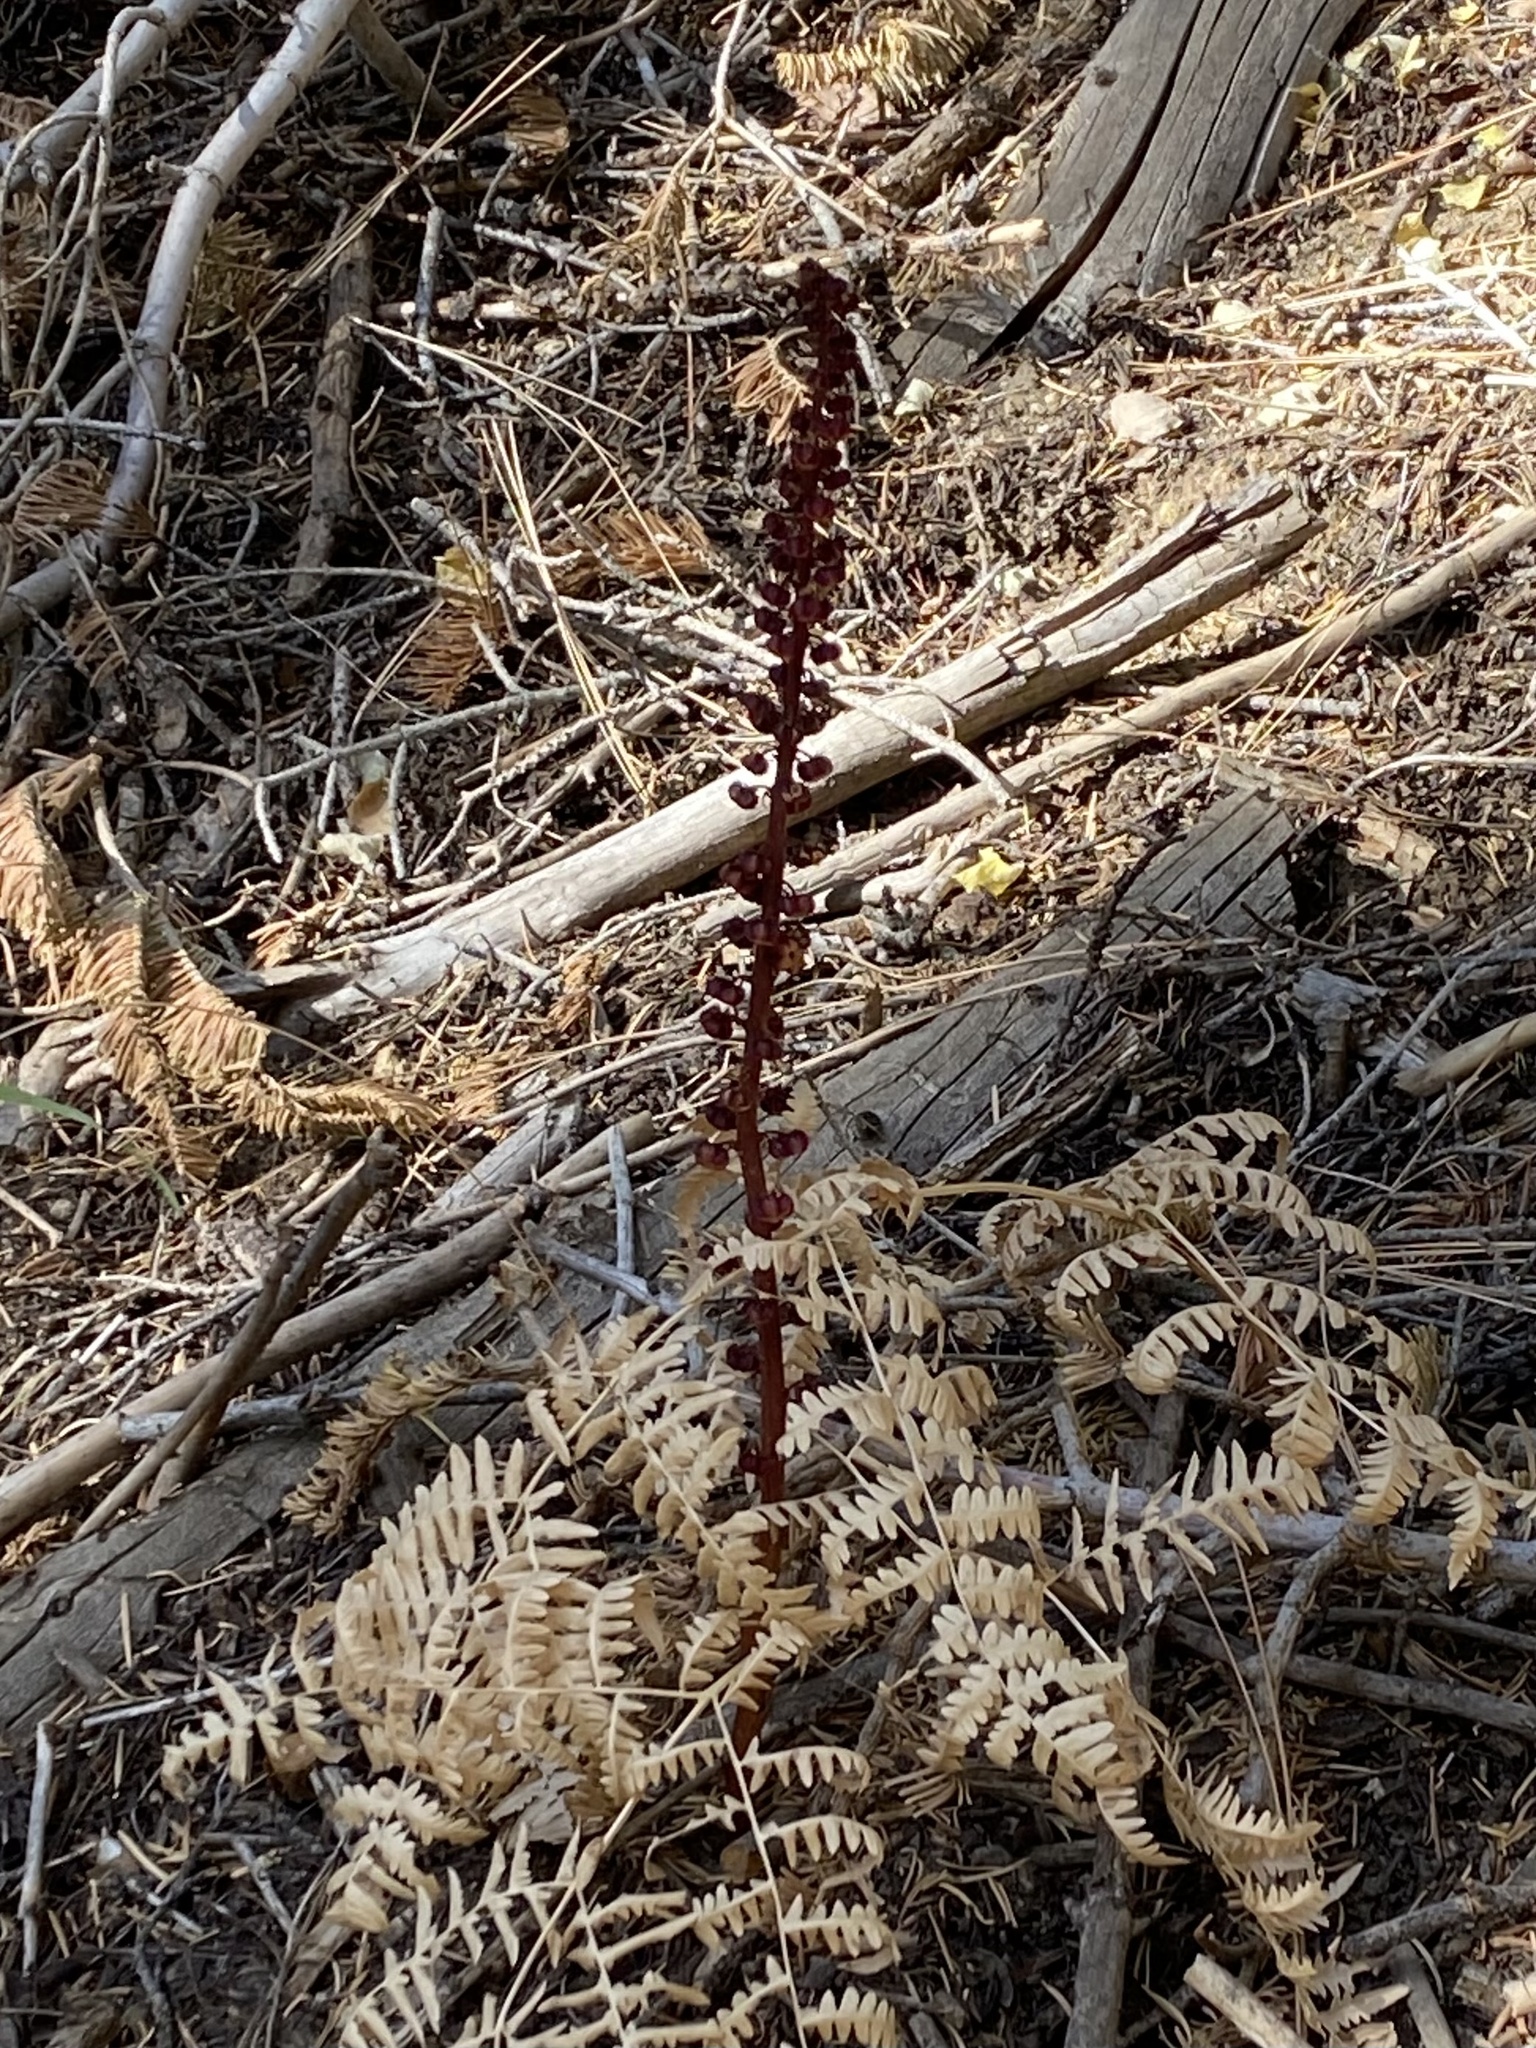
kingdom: Plantae
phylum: Tracheophyta
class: Magnoliopsida
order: Ericales
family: Ericaceae
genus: Pterospora
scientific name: Pterospora andromedea
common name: Giant bird's-nest
